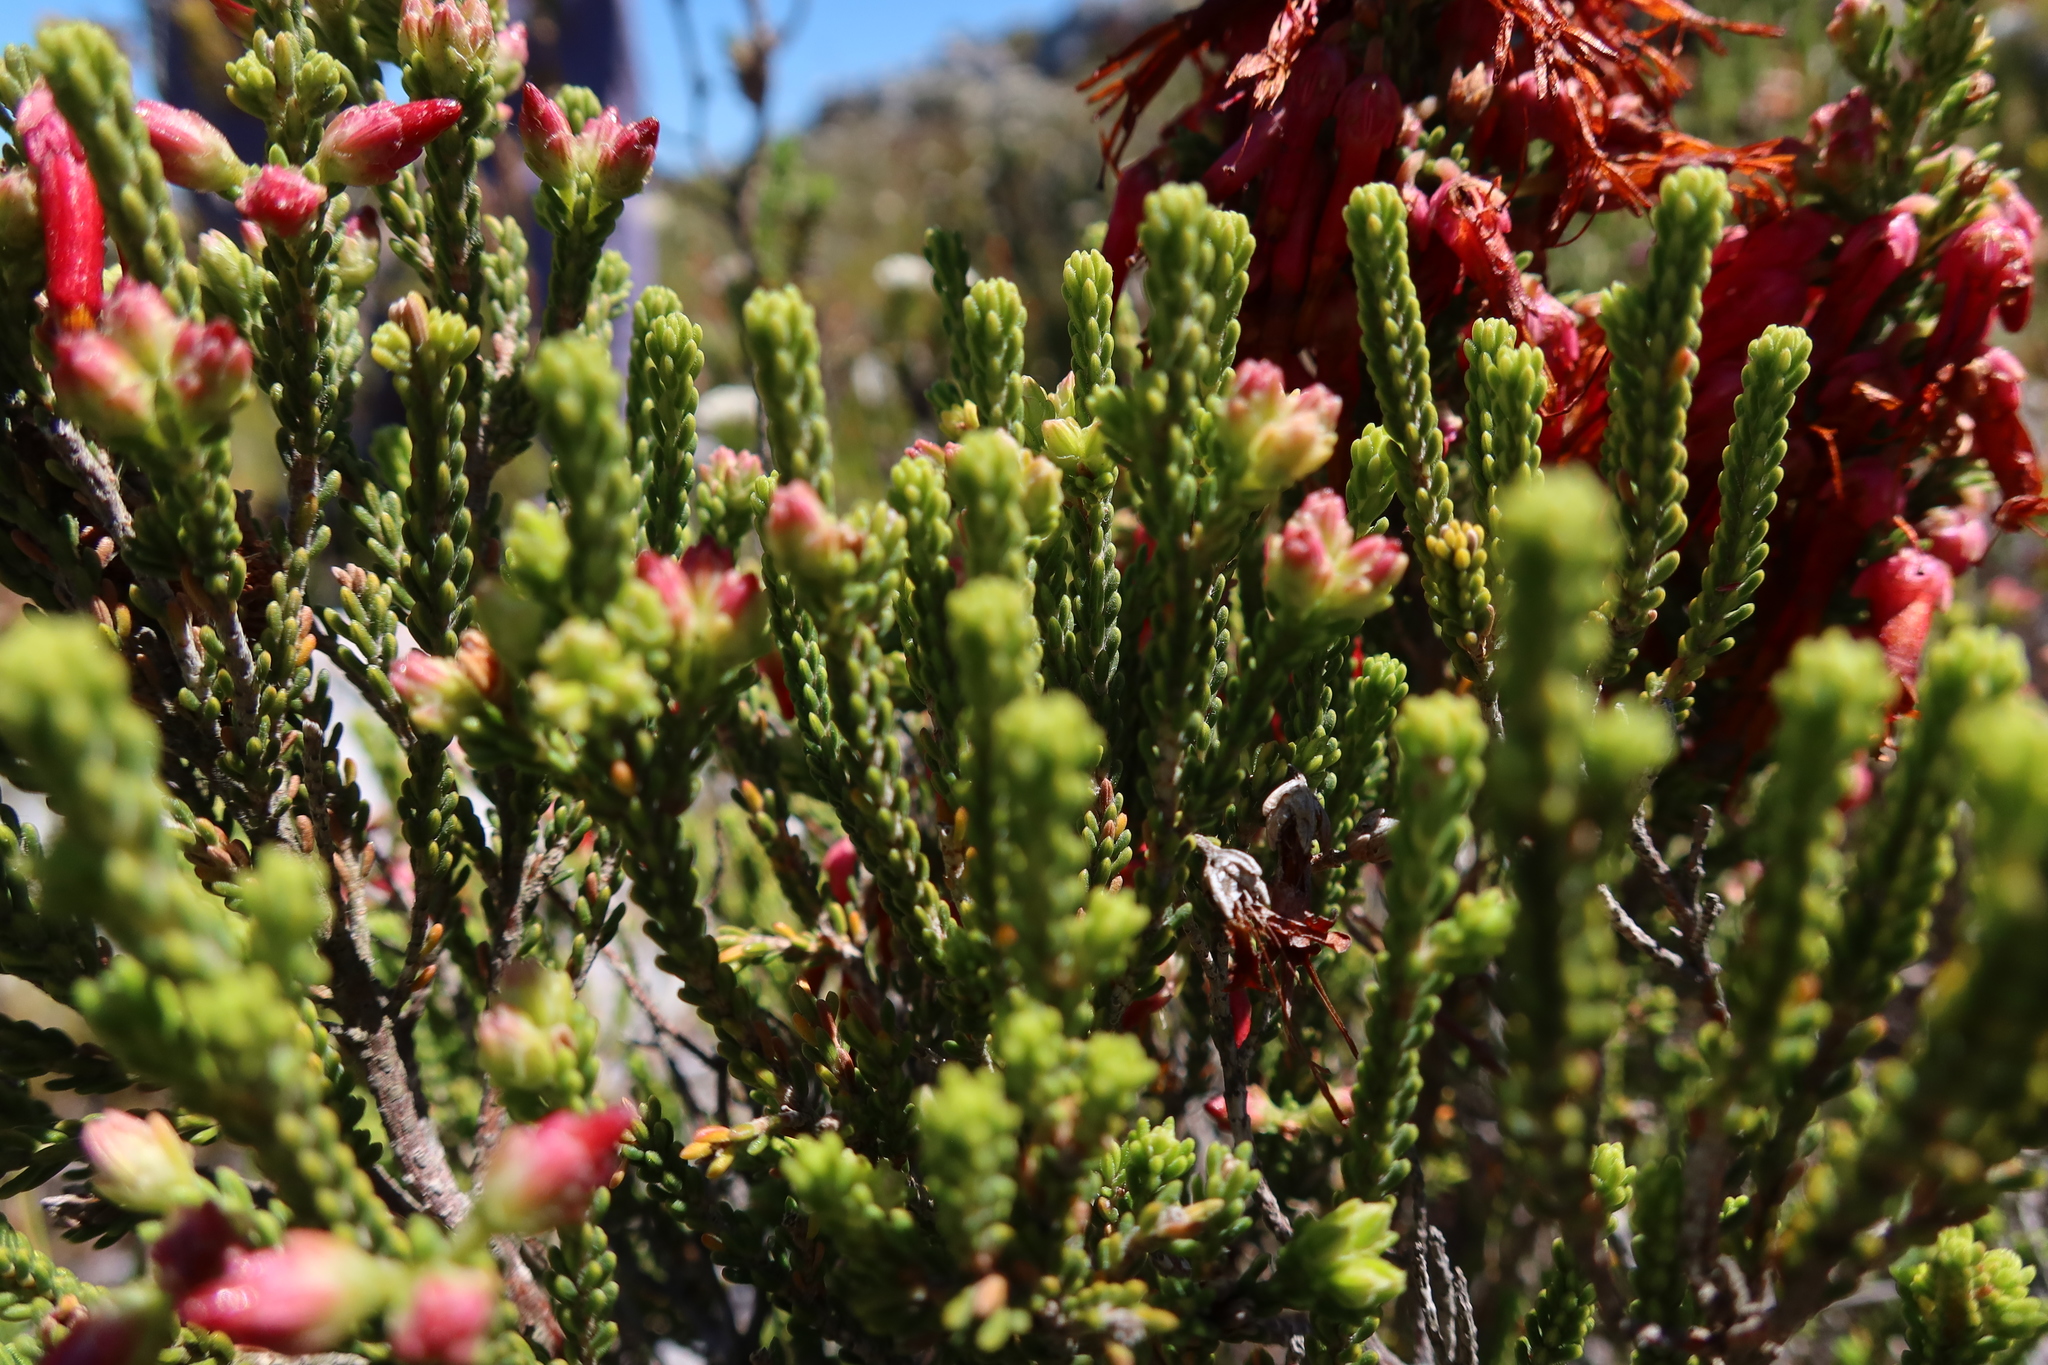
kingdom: Plantae
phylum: Tracheophyta
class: Magnoliopsida
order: Ericales
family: Ericaceae
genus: Erica
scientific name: Erica monadelphia
